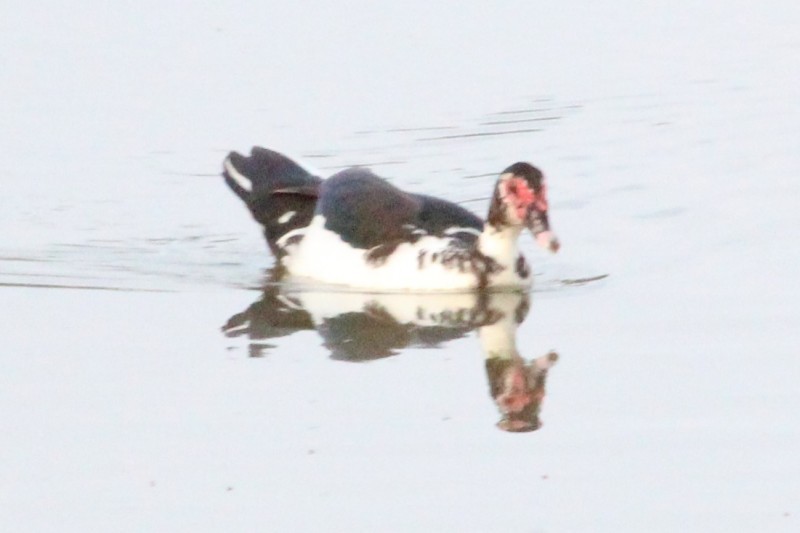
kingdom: Animalia
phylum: Chordata
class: Aves
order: Anseriformes
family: Anatidae
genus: Cairina
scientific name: Cairina moschata
